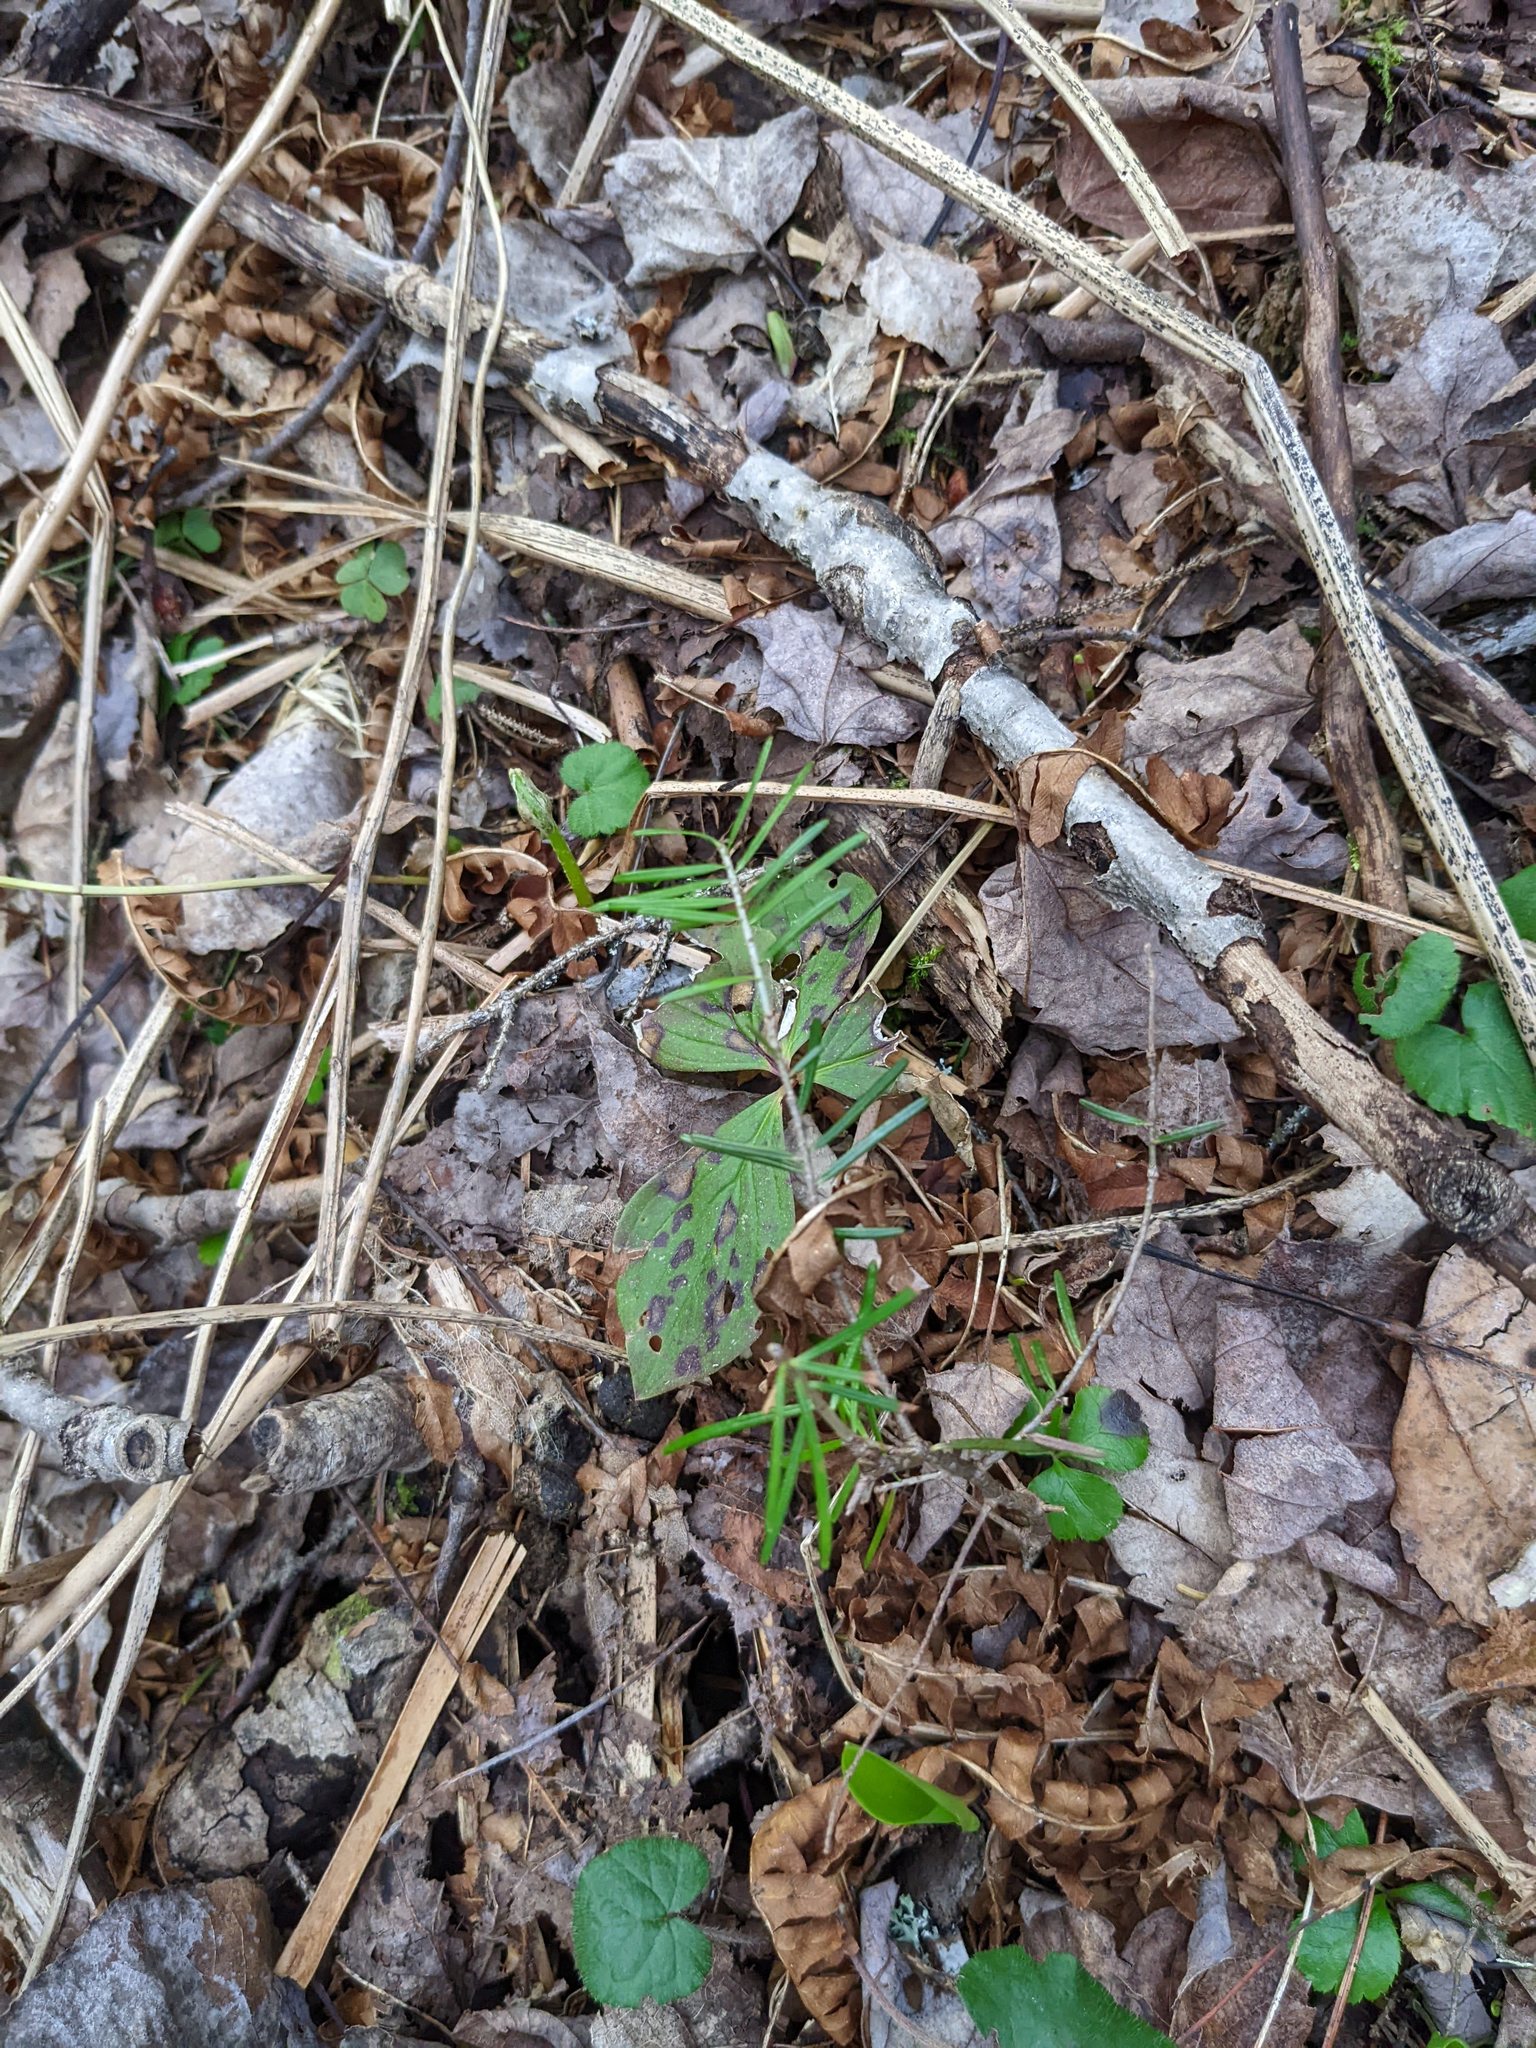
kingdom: Plantae
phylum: Tracheophyta
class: Pinopsida
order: Pinales
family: Pinaceae
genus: Abies
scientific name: Abies balsamea
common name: Balsam fir
